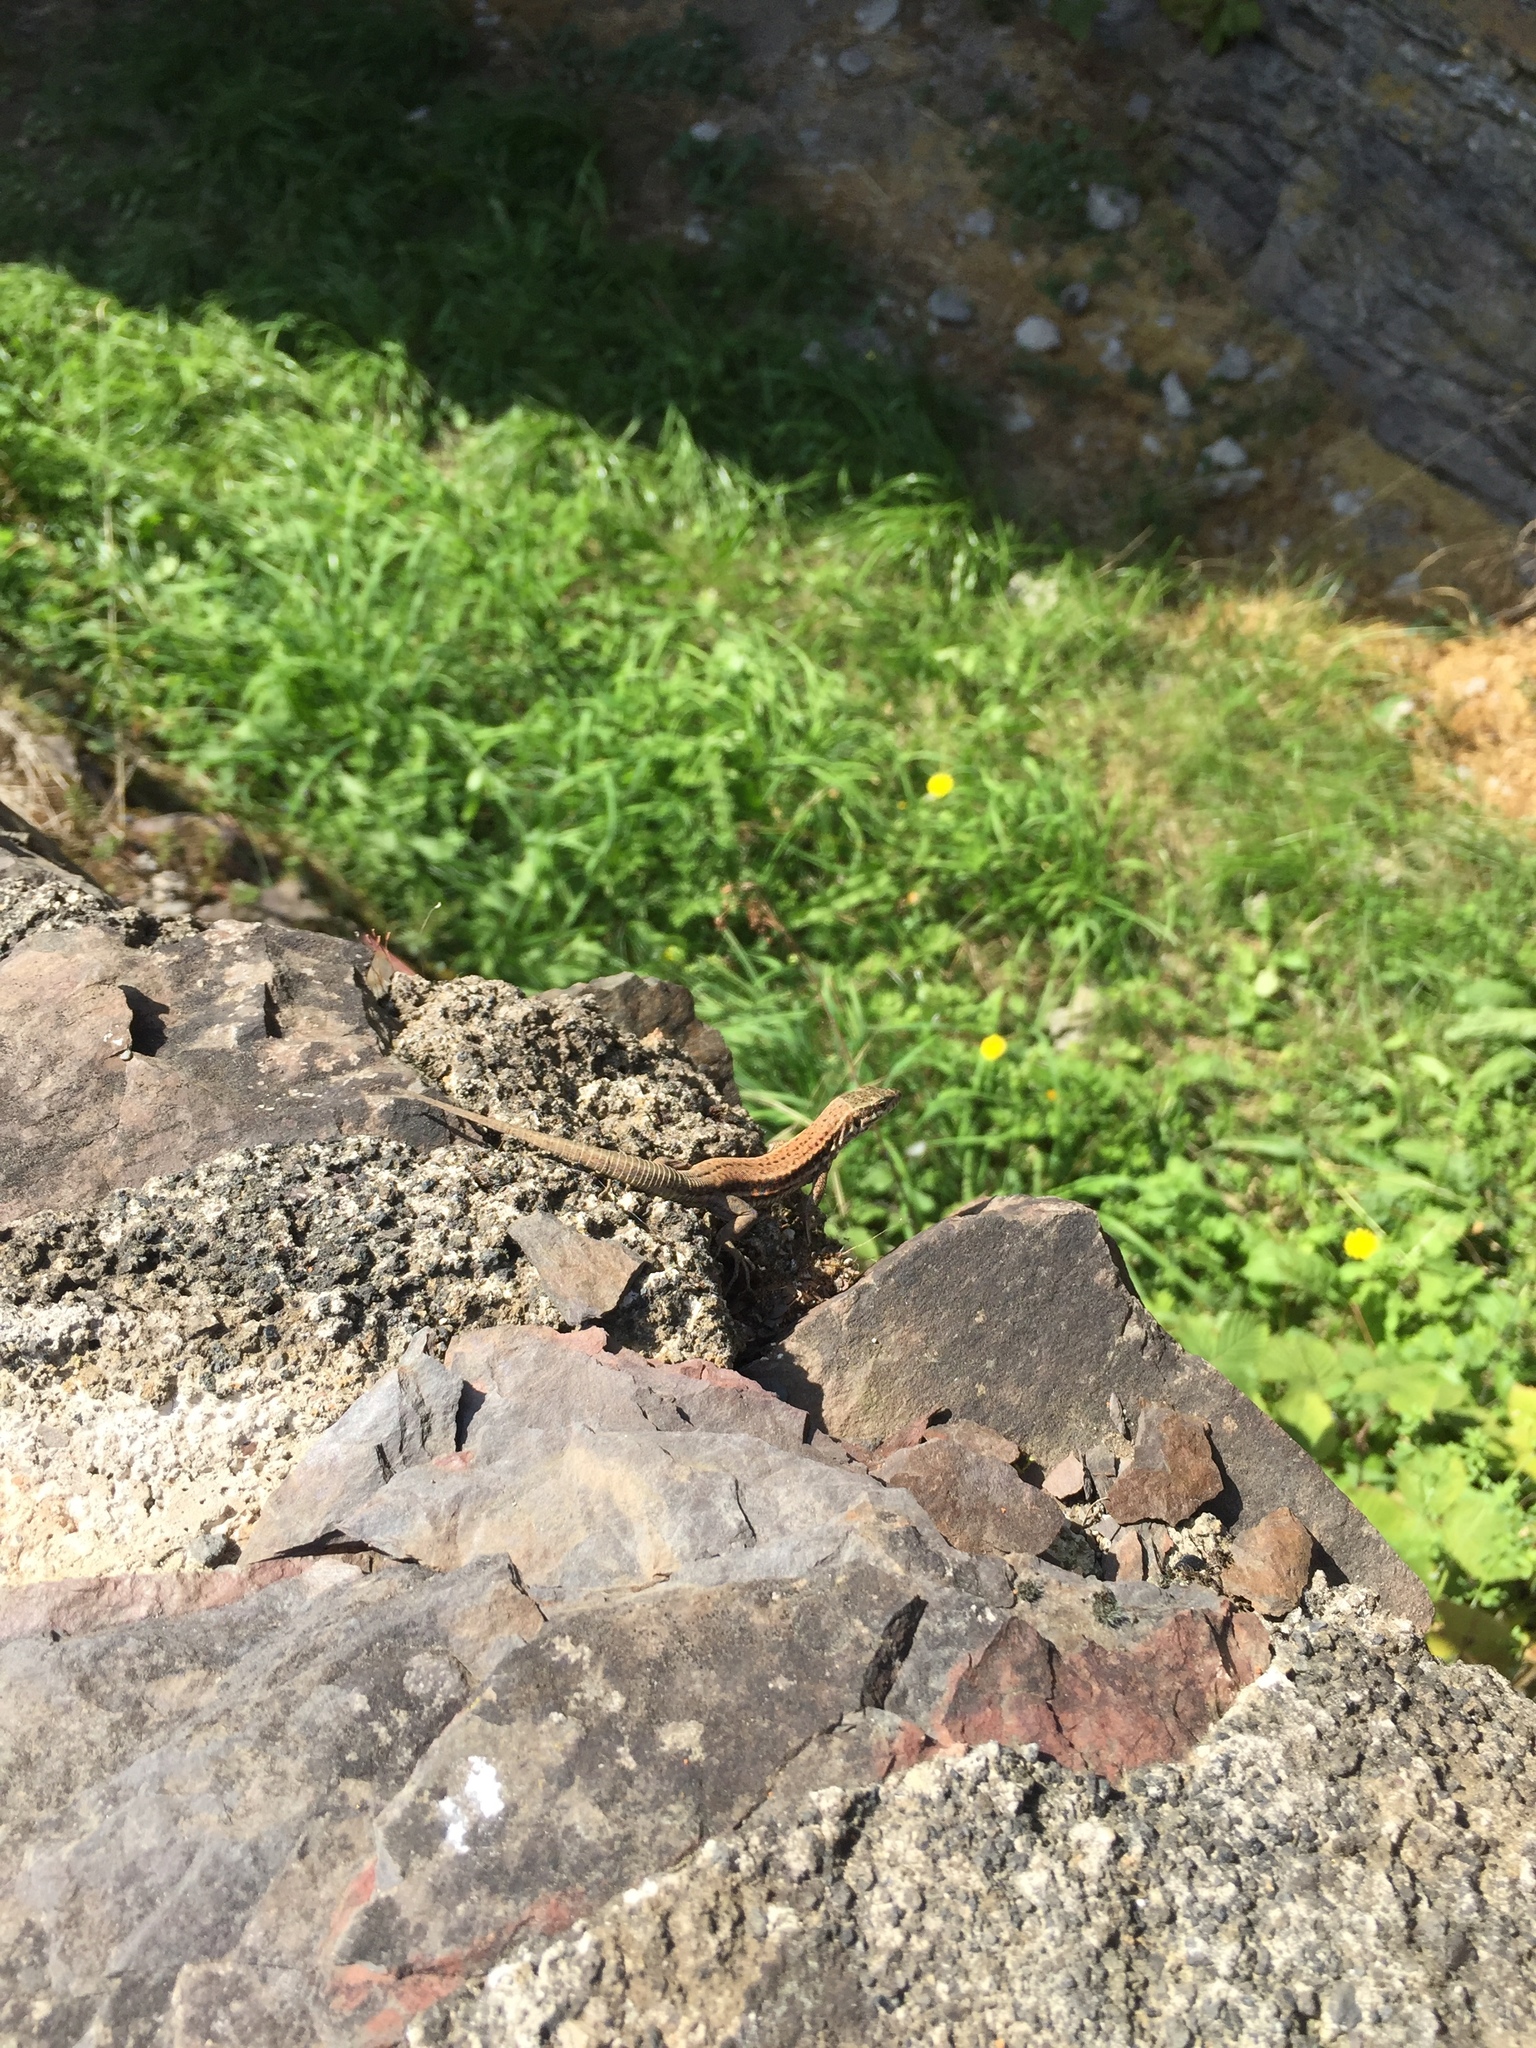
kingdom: Animalia
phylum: Chordata
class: Squamata
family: Lacertidae
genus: Podarcis
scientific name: Podarcis muralis
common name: Common wall lizard
